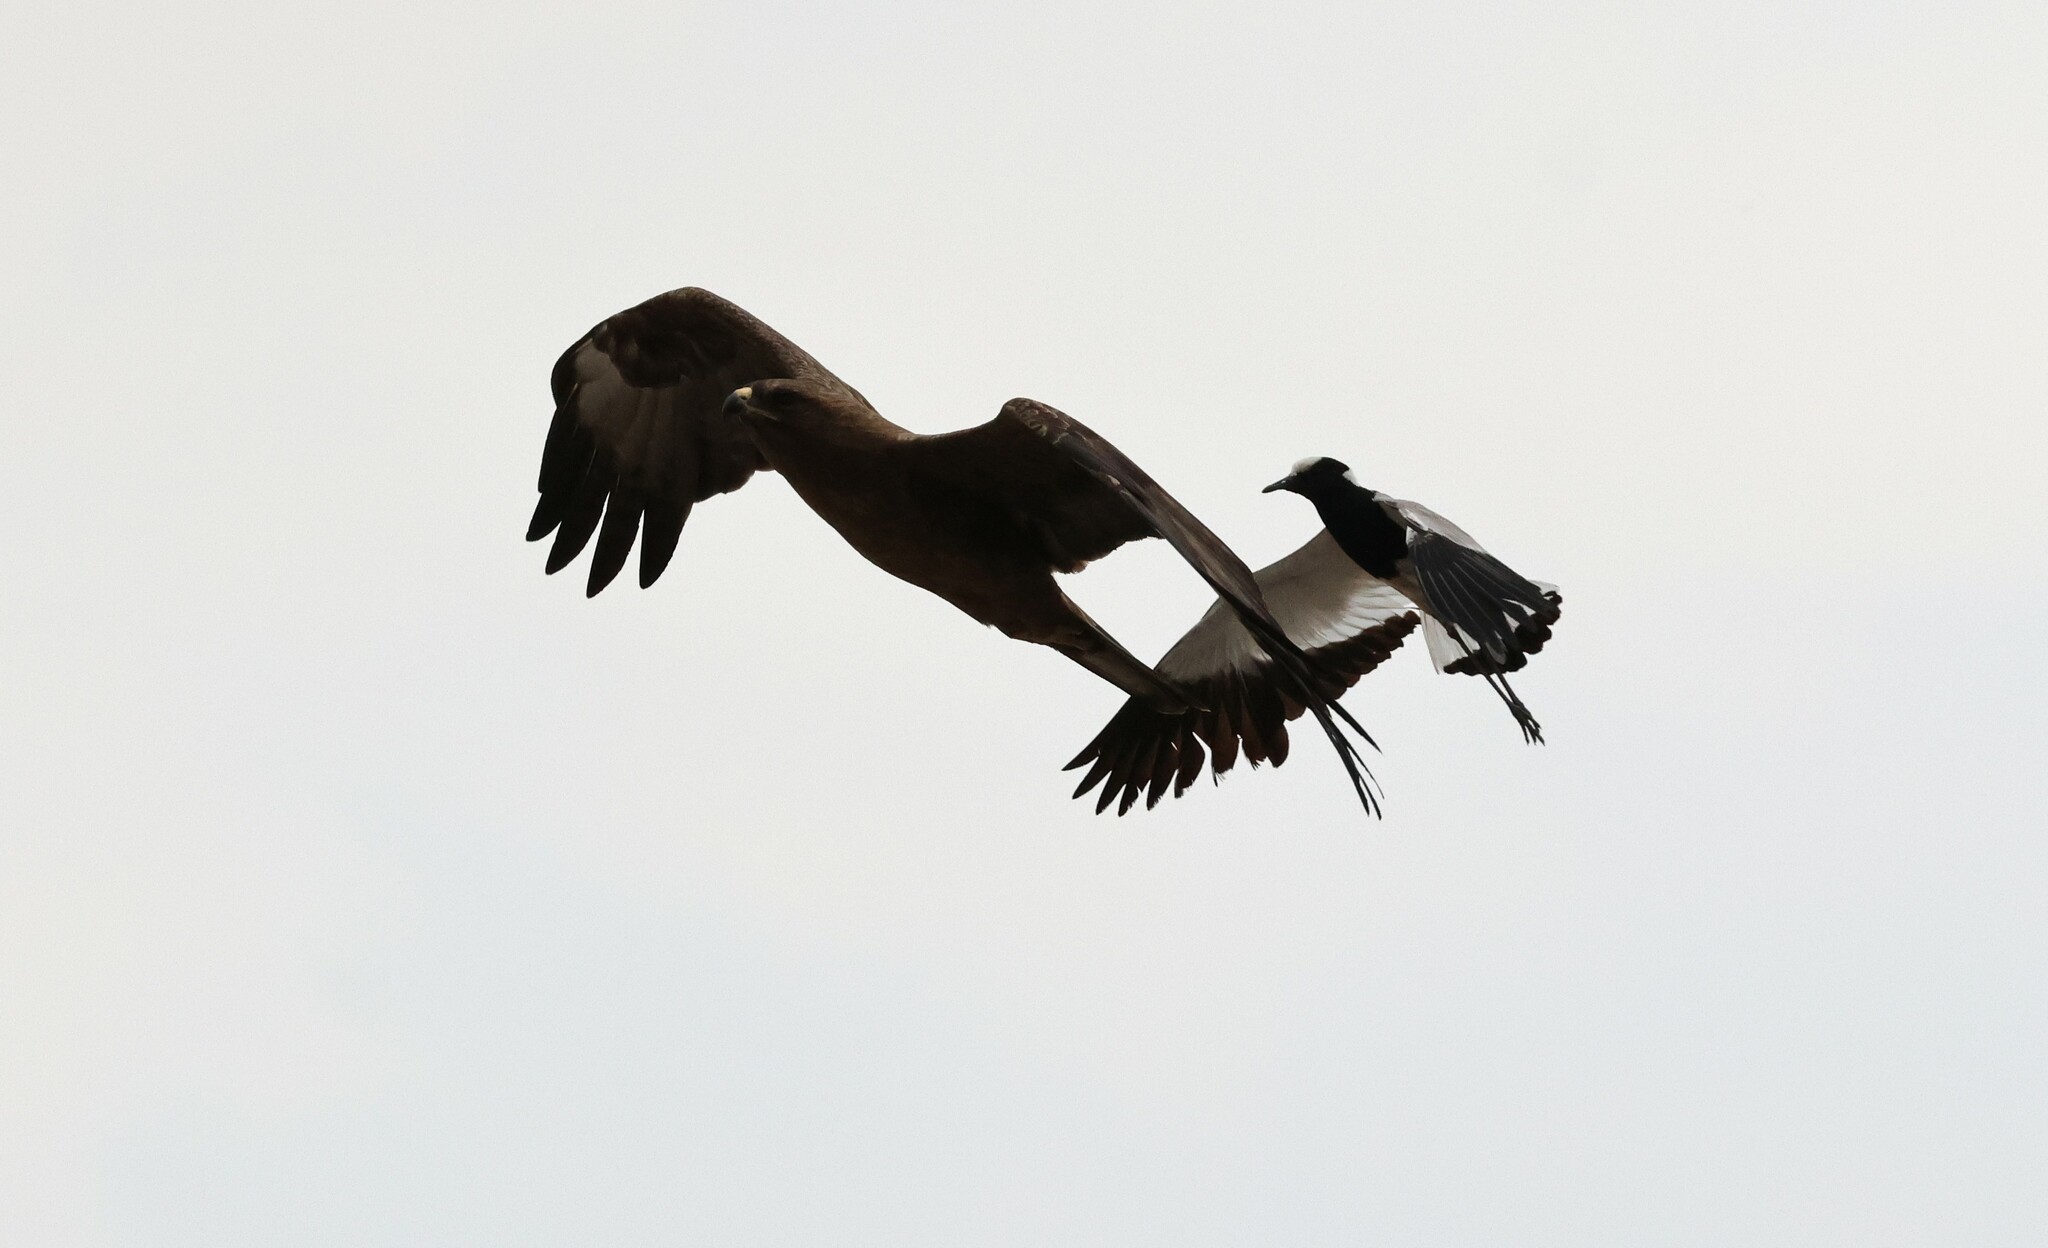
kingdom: Animalia
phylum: Chordata
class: Aves
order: Charadriiformes
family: Charadriidae
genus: Vanellus
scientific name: Vanellus armatus
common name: Blacksmith lapwing
